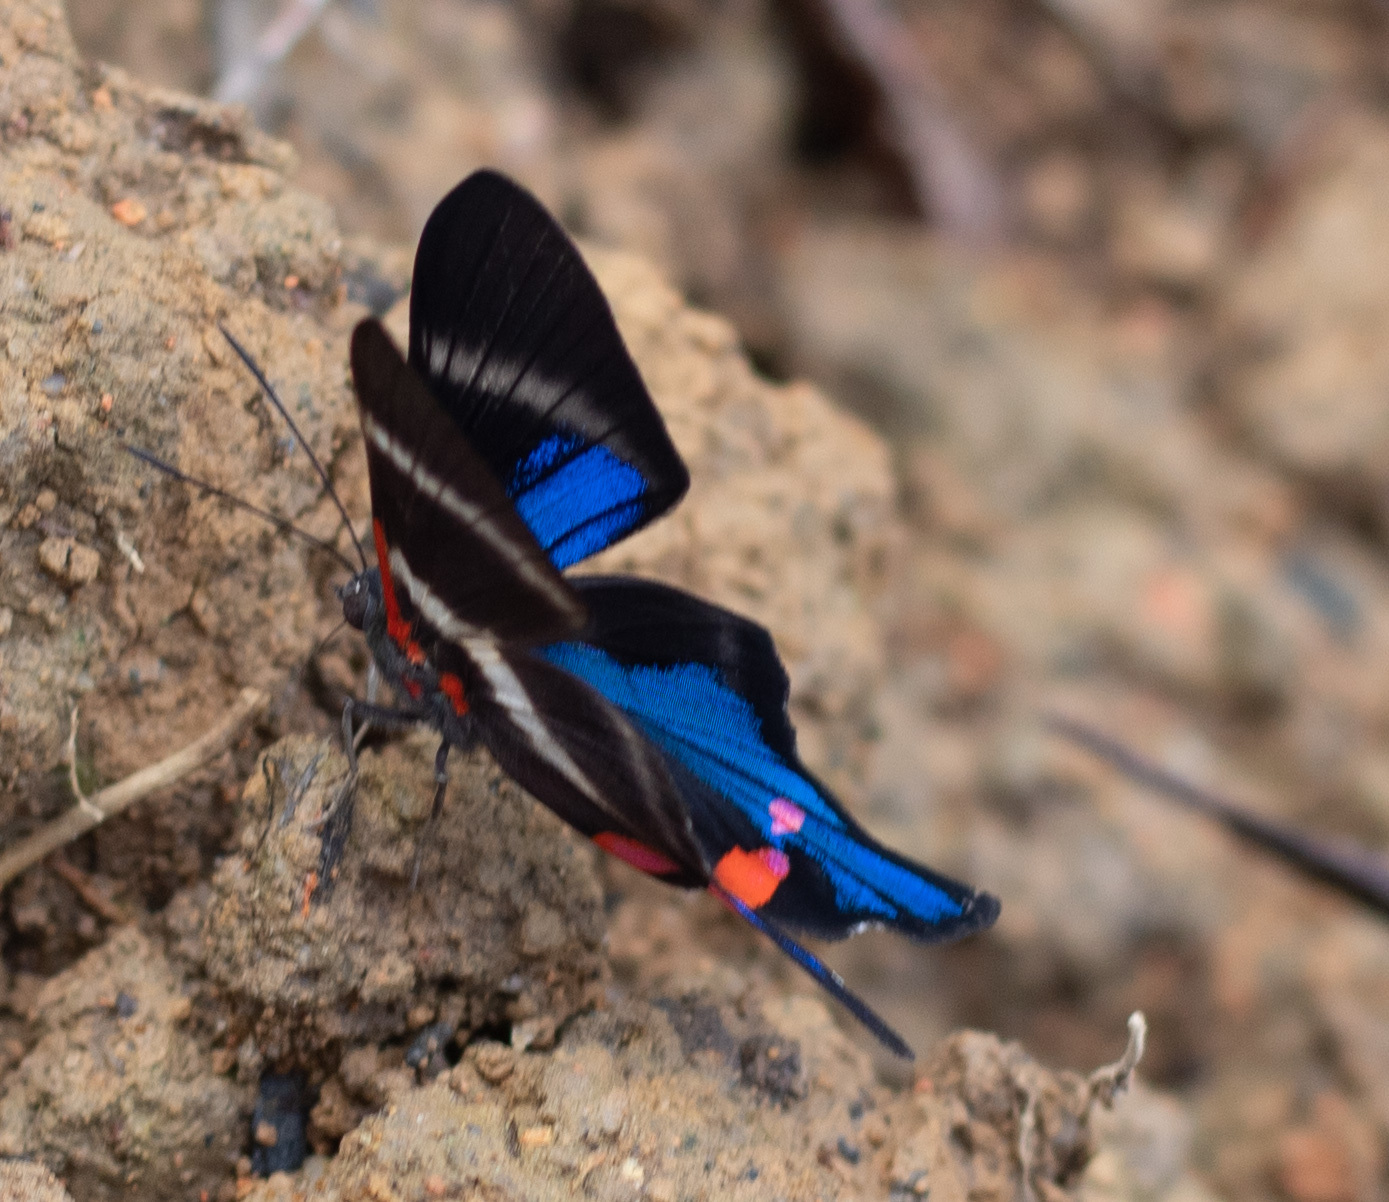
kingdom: Animalia
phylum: Arthropoda
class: Insecta
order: Lepidoptera
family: Riodinidae
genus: Rhetus
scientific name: Rhetus periander
